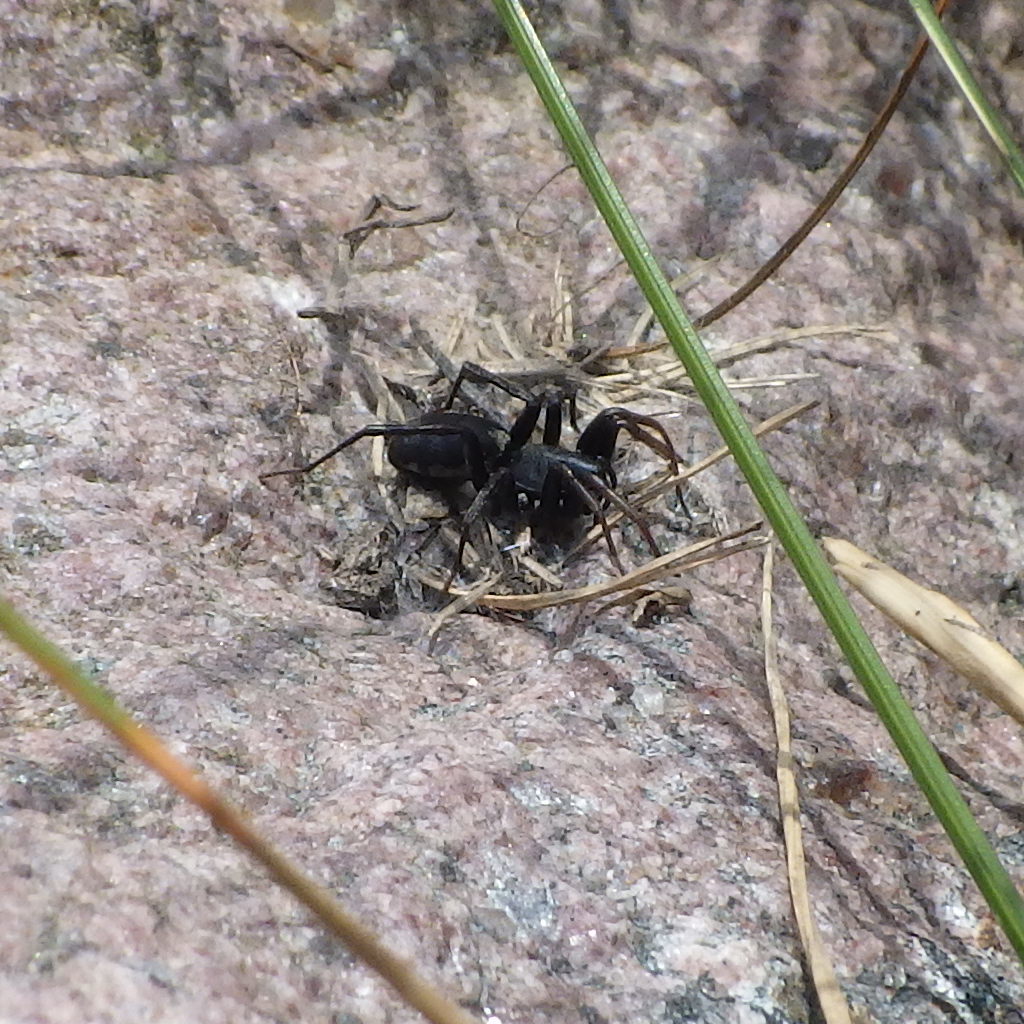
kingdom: Animalia
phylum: Arthropoda
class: Arachnida
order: Araneae
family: Corinnidae
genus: Castianeira
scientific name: Castianeira descripta
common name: Red-spotted ant-mimic sac spider
